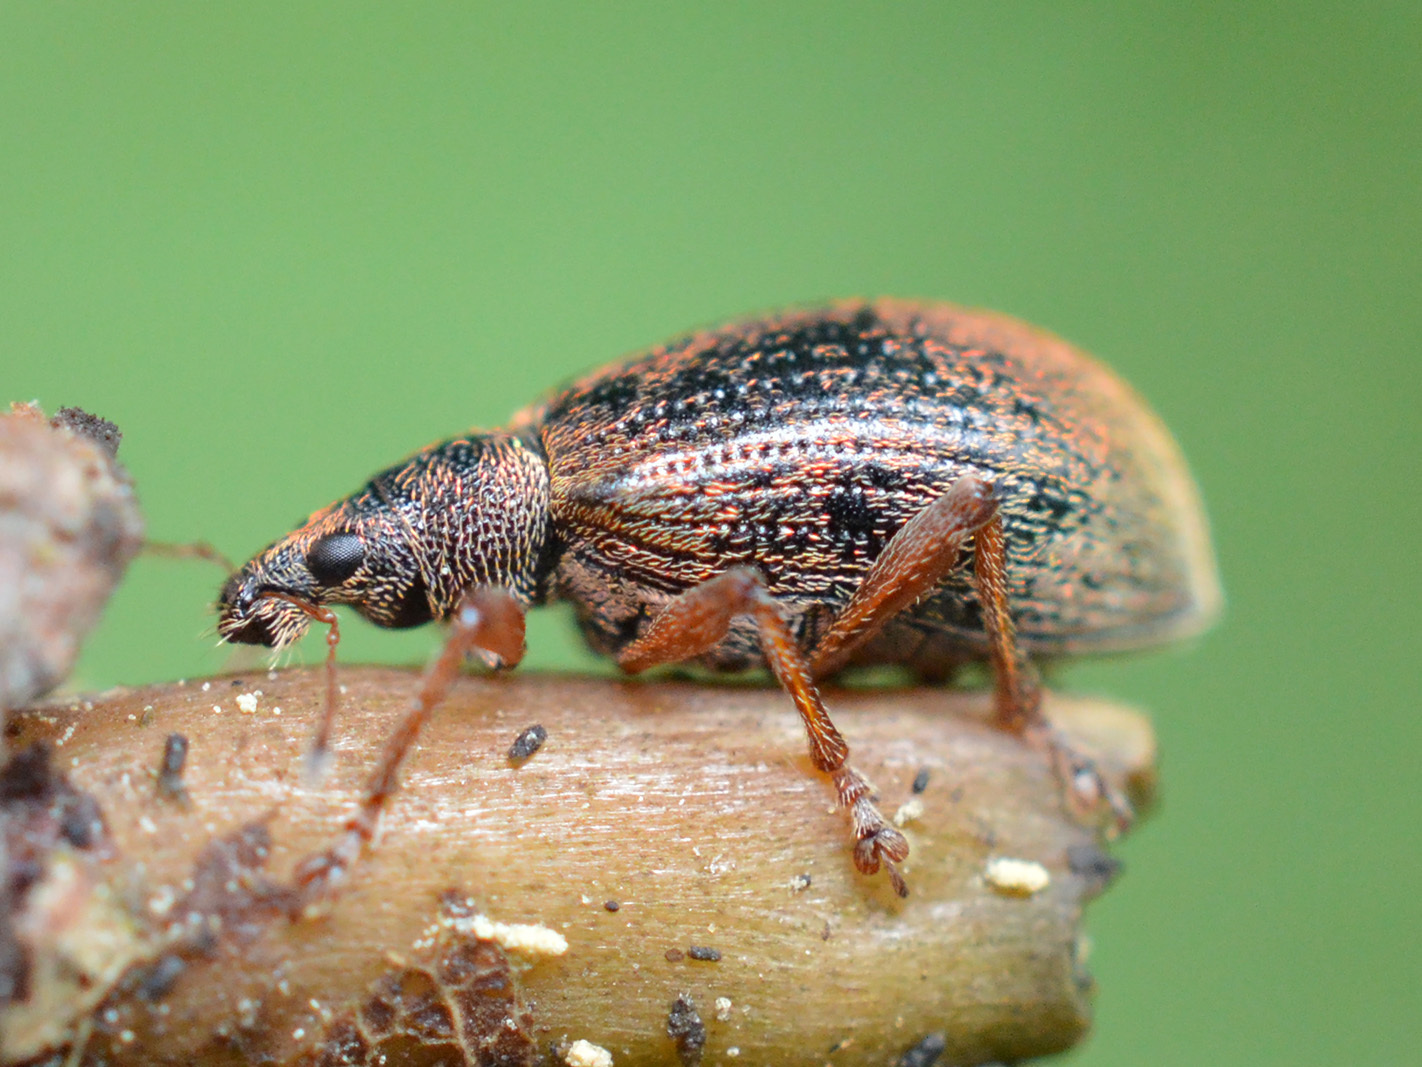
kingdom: Animalia
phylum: Arthropoda
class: Insecta
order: Coleoptera
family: Curculionidae
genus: Polydrusus
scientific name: Polydrusus mollis
